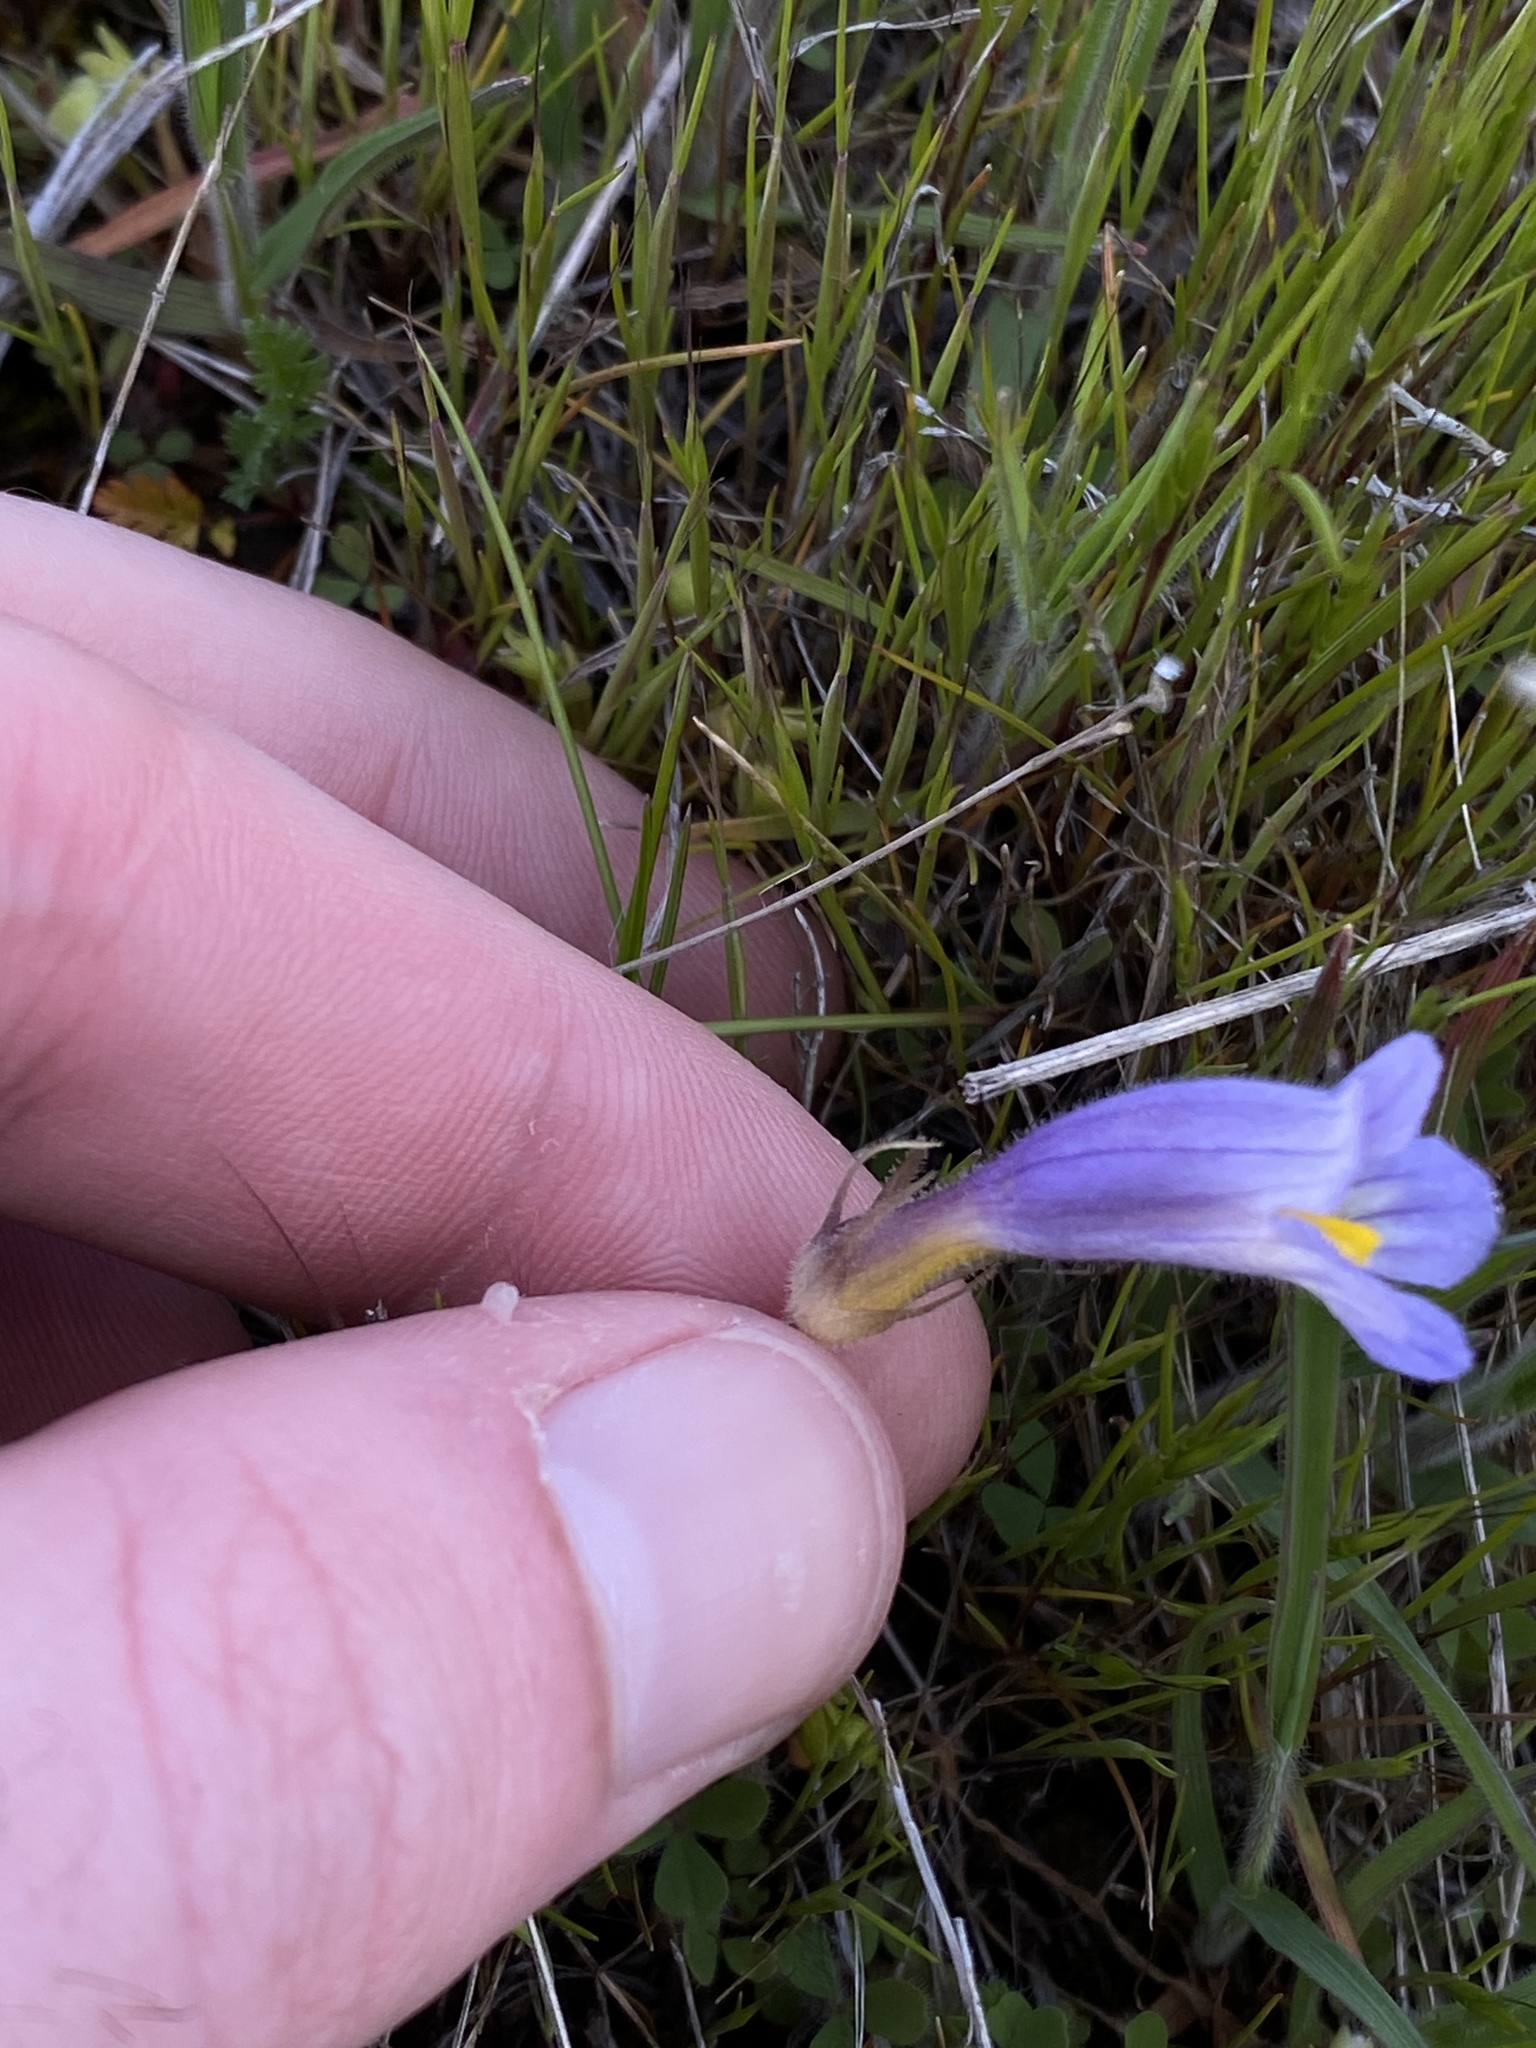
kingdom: Plantae
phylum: Tracheophyta
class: Magnoliopsida
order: Lamiales
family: Orobanchaceae
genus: Aphyllon
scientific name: Aphyllon uniflorum
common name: One-flowered broomrape
